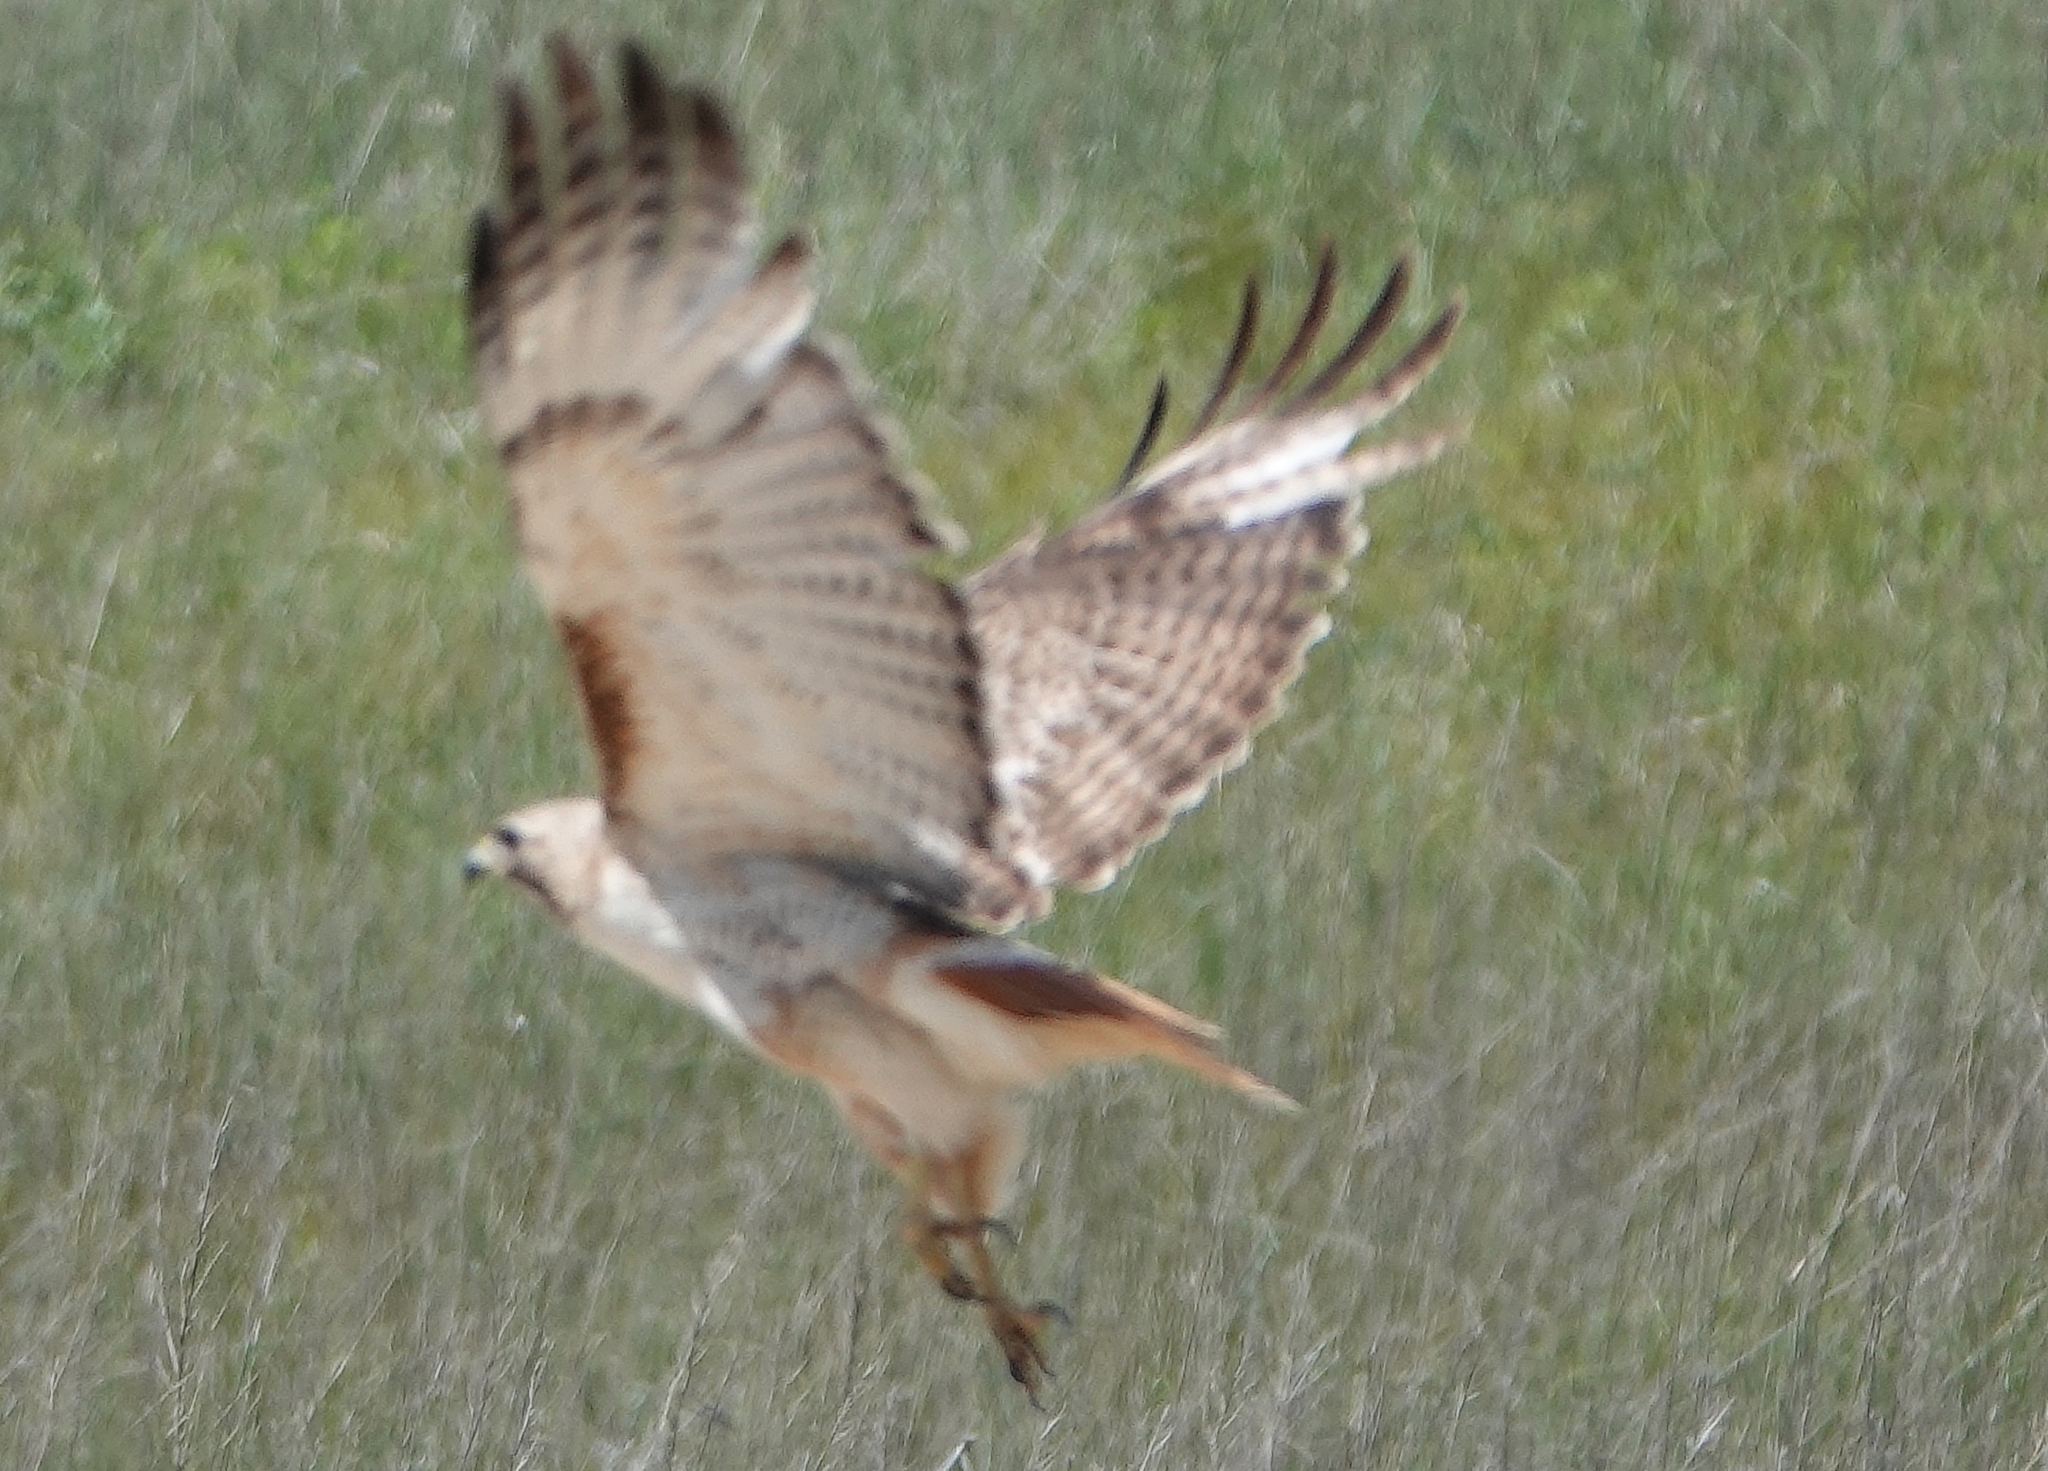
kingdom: Animalia
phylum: Chordata
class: Aves
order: Accipitriformes
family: Accipitridae
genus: Buteo
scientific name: Buteo jamaicensis
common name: Red-tailed hawk
